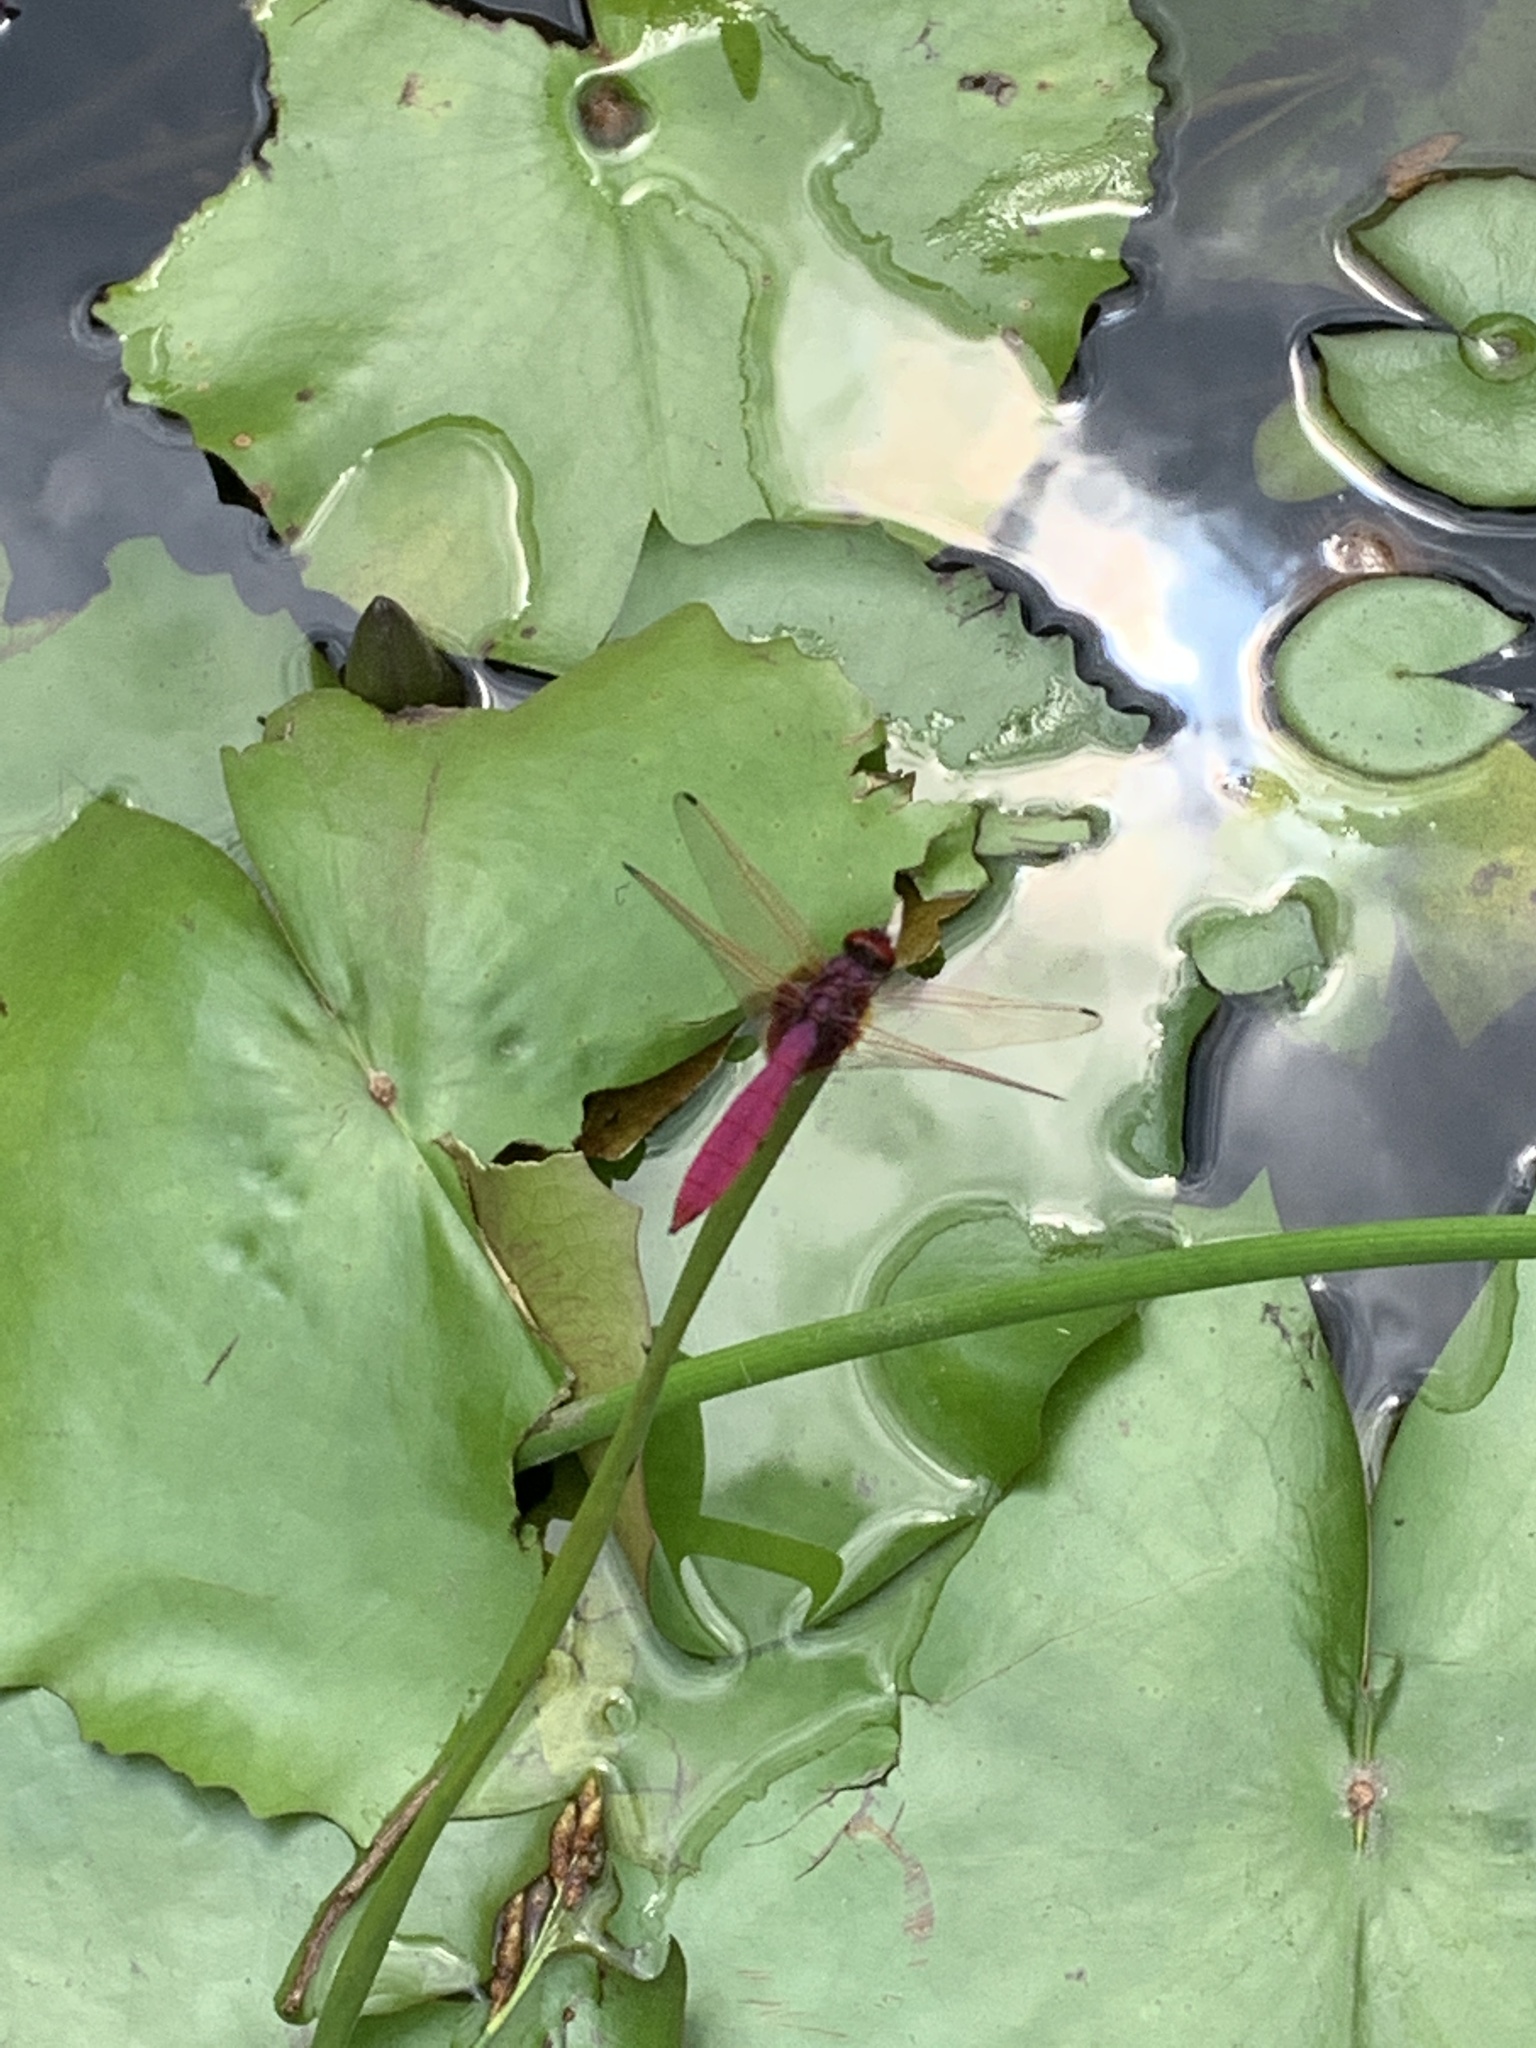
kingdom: Animalia
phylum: Arthropoda
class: Insecta
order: Odonata
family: Libellulidae
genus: Trithemis
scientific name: Trithemis aurora
